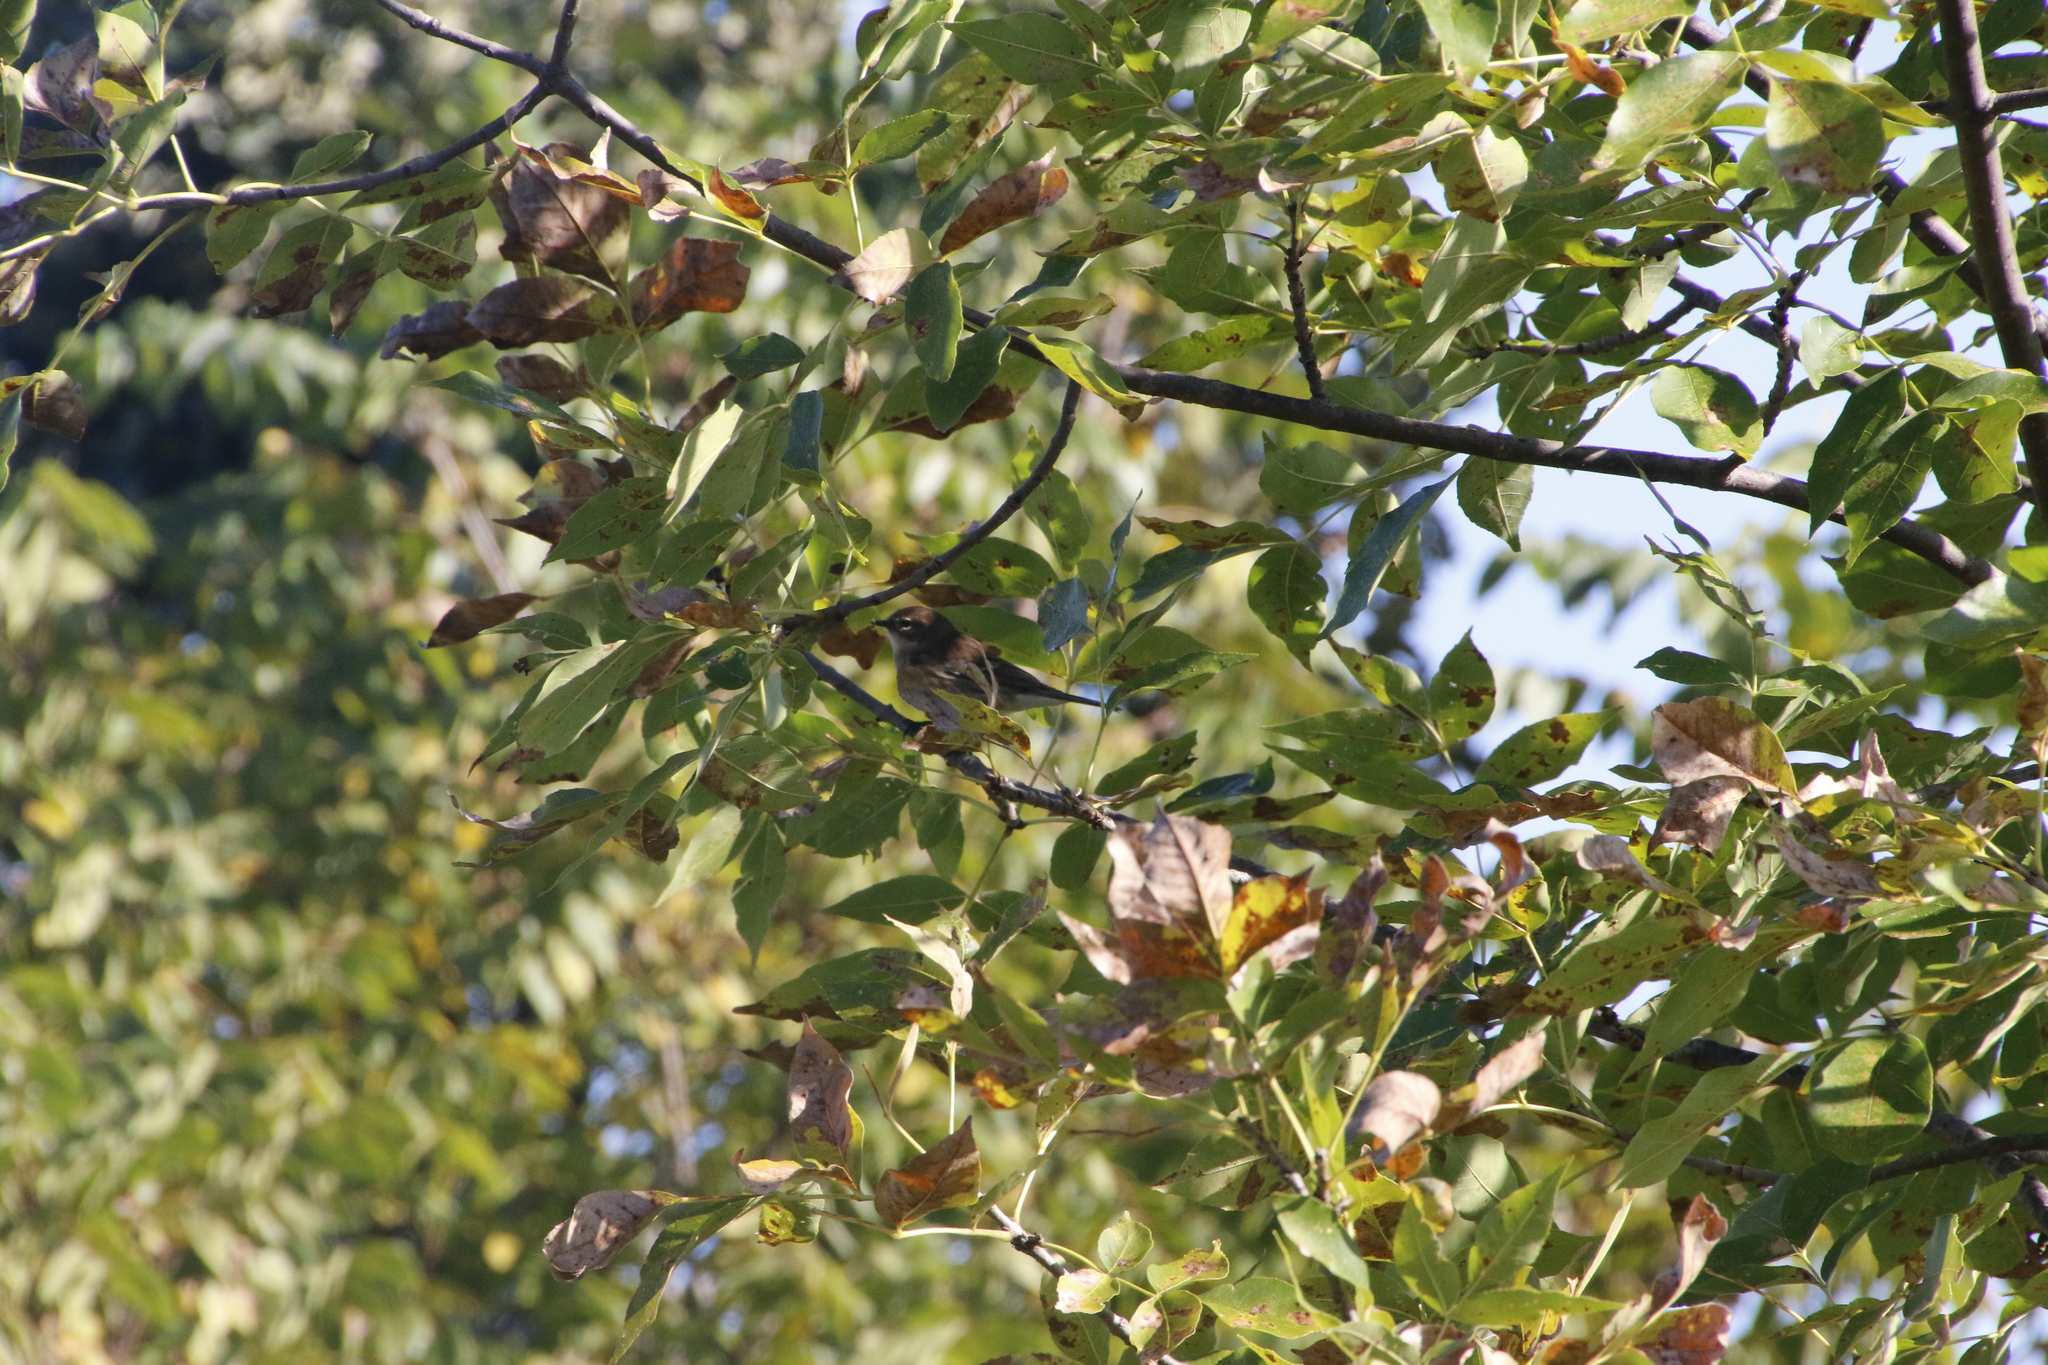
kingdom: Animalia
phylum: Chordata
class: Aves
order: Passeriformes
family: Parulidae
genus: Setophaga
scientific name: Setophaga coronata
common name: Myrtle warbler
